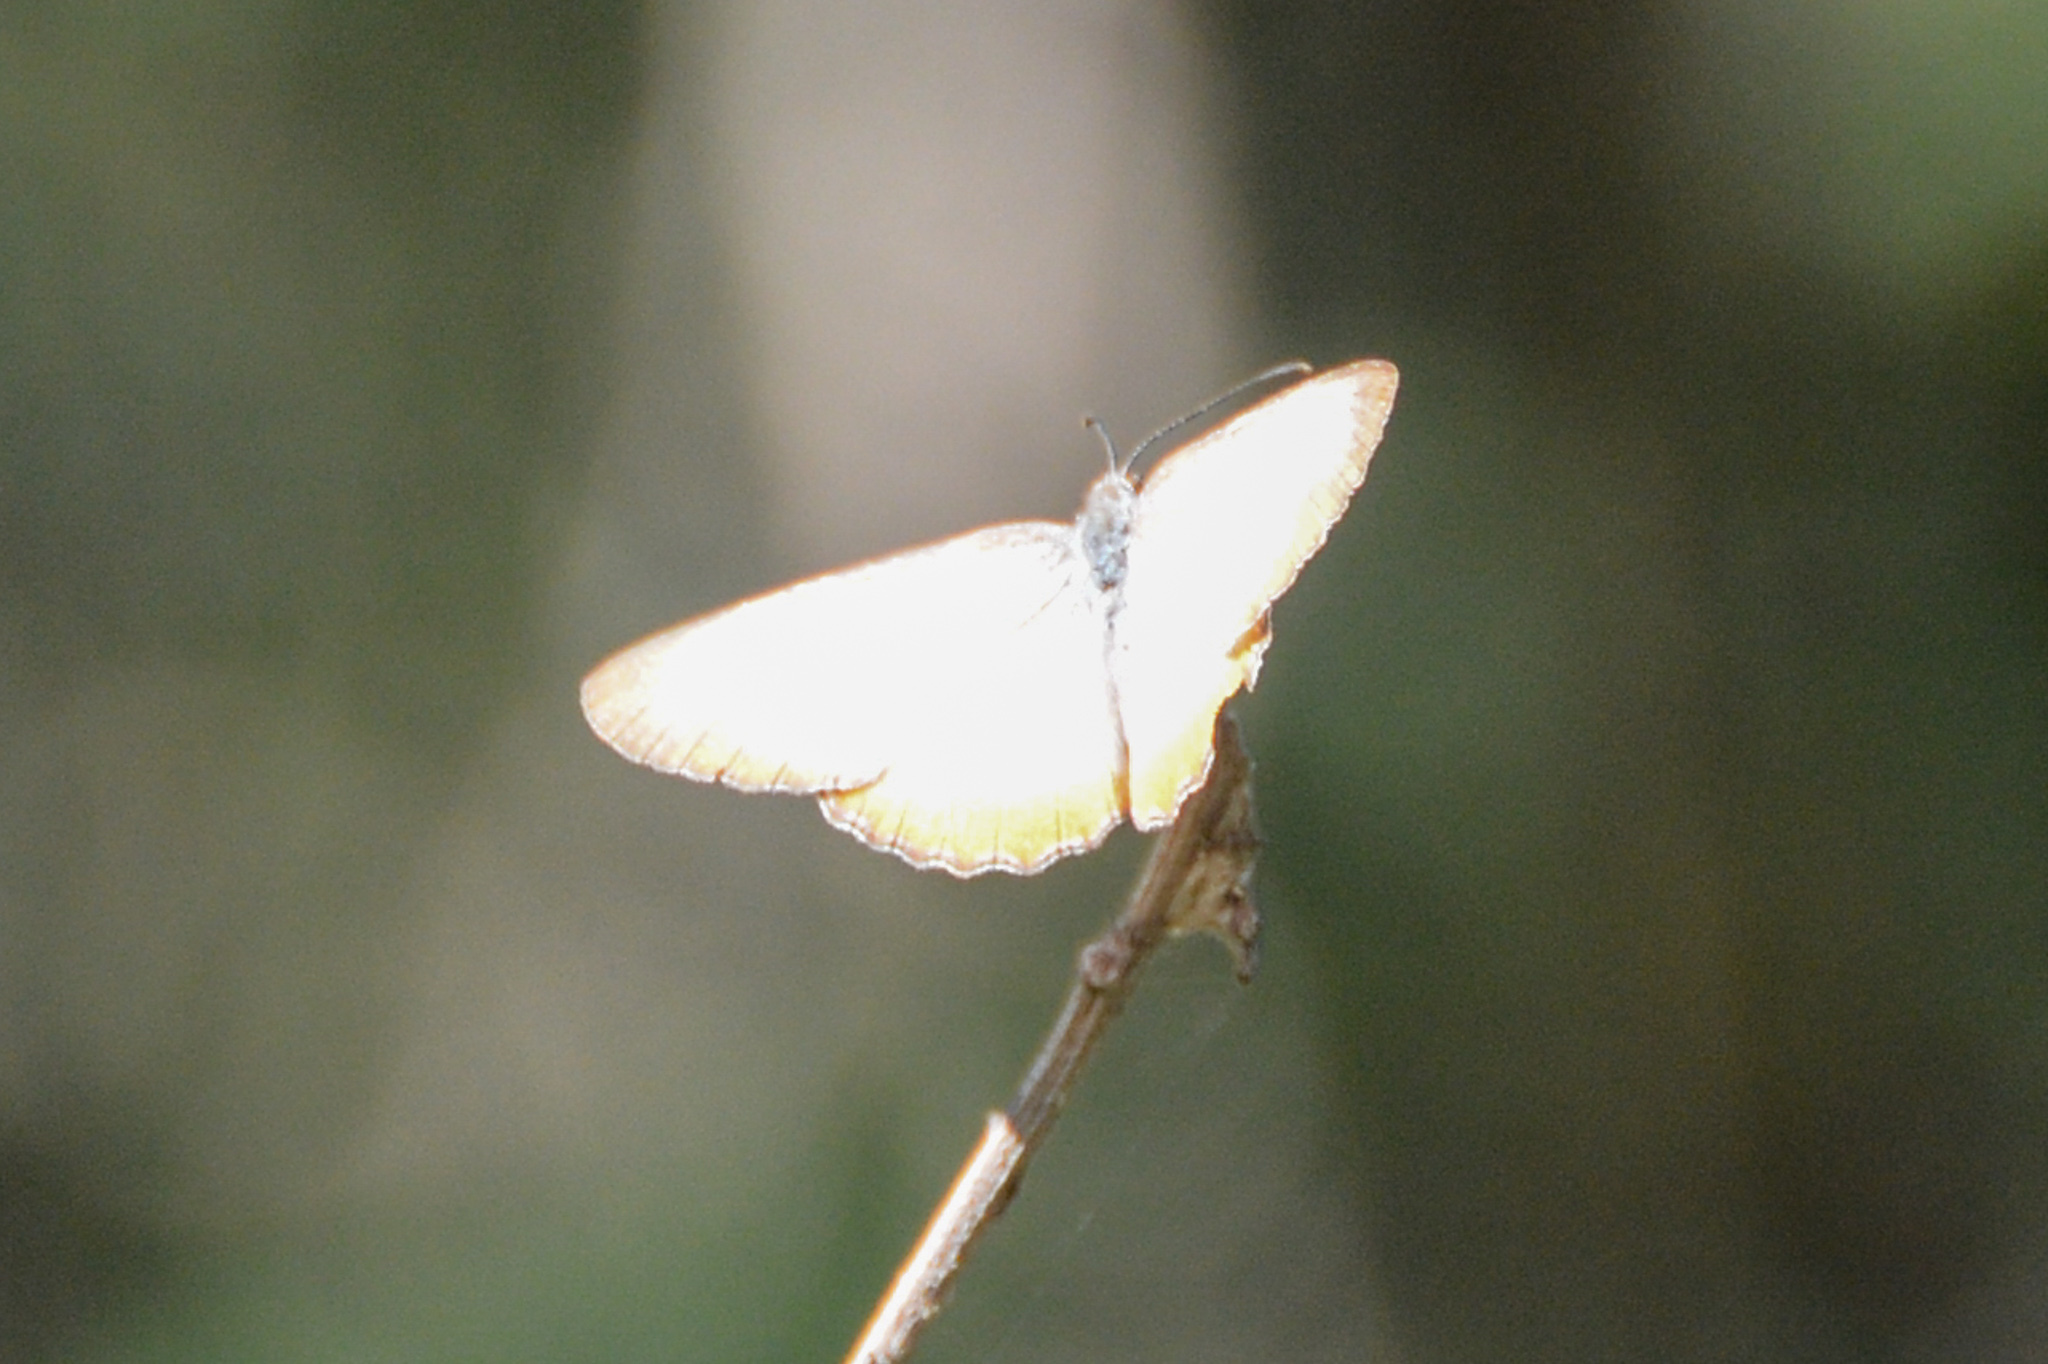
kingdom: Animalia
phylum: Arthropoda
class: Insecta
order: Lepidoptera
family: Nymphalidae
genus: Mestra
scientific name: Mestra amymone
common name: Common mestra
